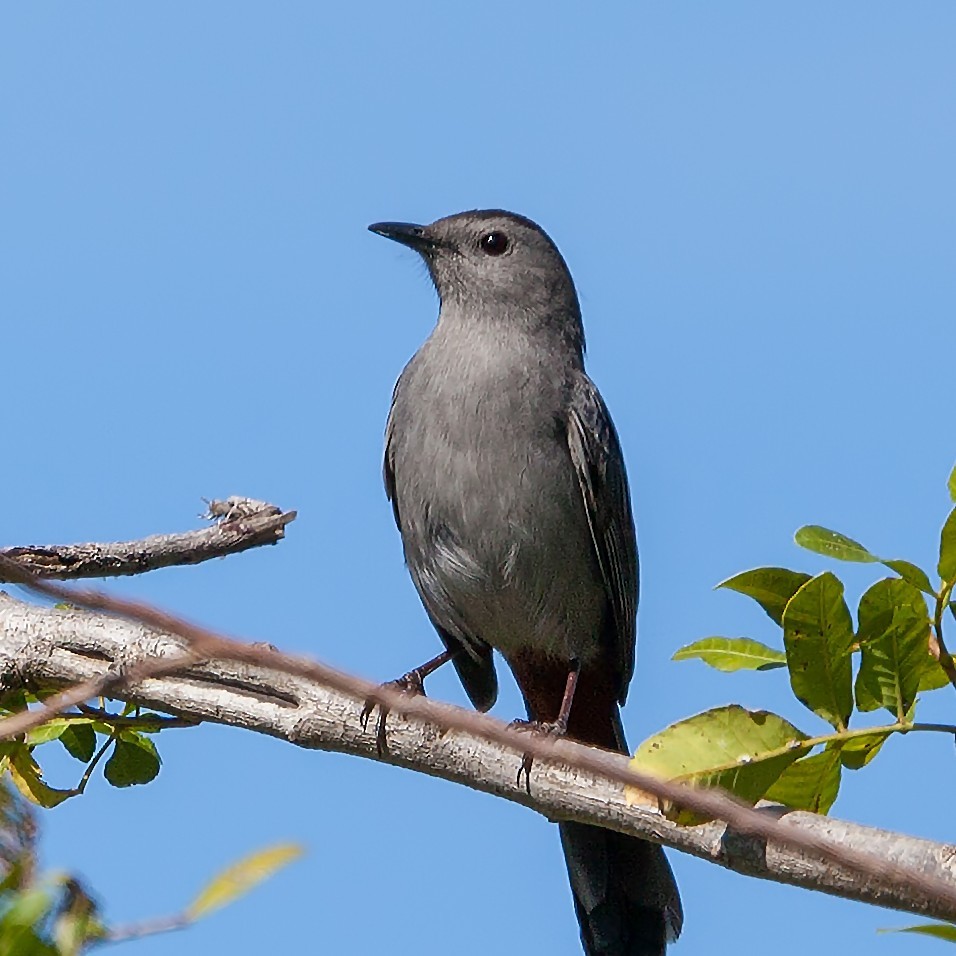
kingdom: Animalia
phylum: Chordata
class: Aves
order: Passeriformes
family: Mimidae
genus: Dumetella
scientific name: Dumetella carolinensis
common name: Gray catbird
